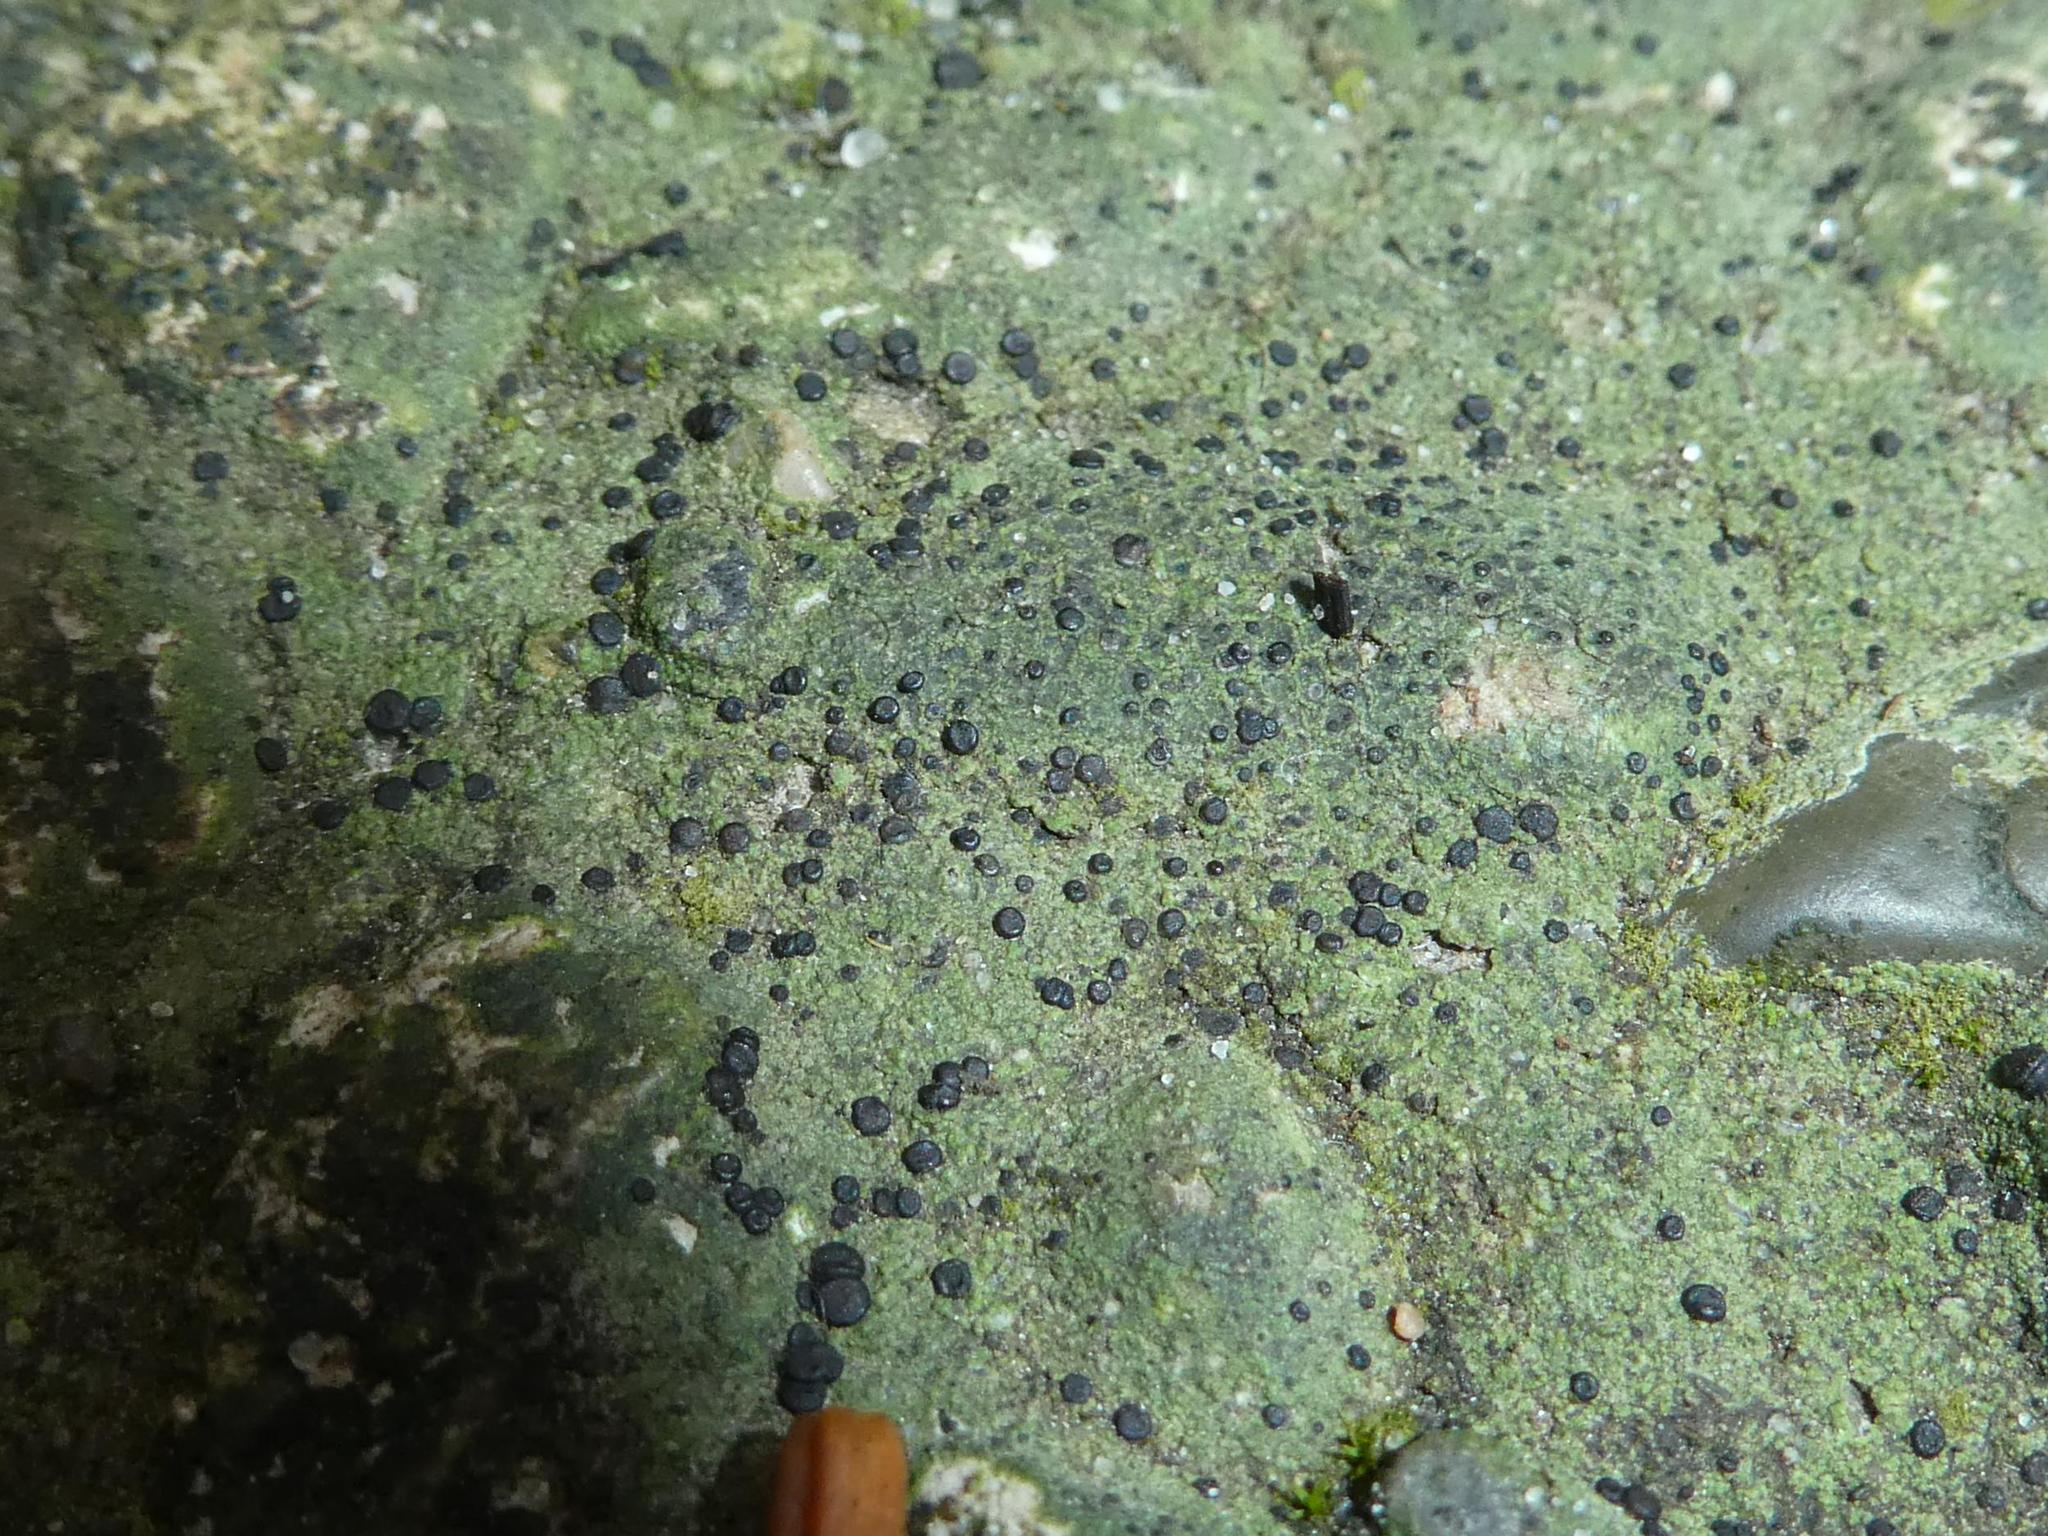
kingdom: Fungi
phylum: Ascomycota
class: Lecanoromycetes
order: Lecanorales
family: Lecanoraceae
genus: Lecidella
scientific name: Lecidella stigmatea
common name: Limestone disc lichen
